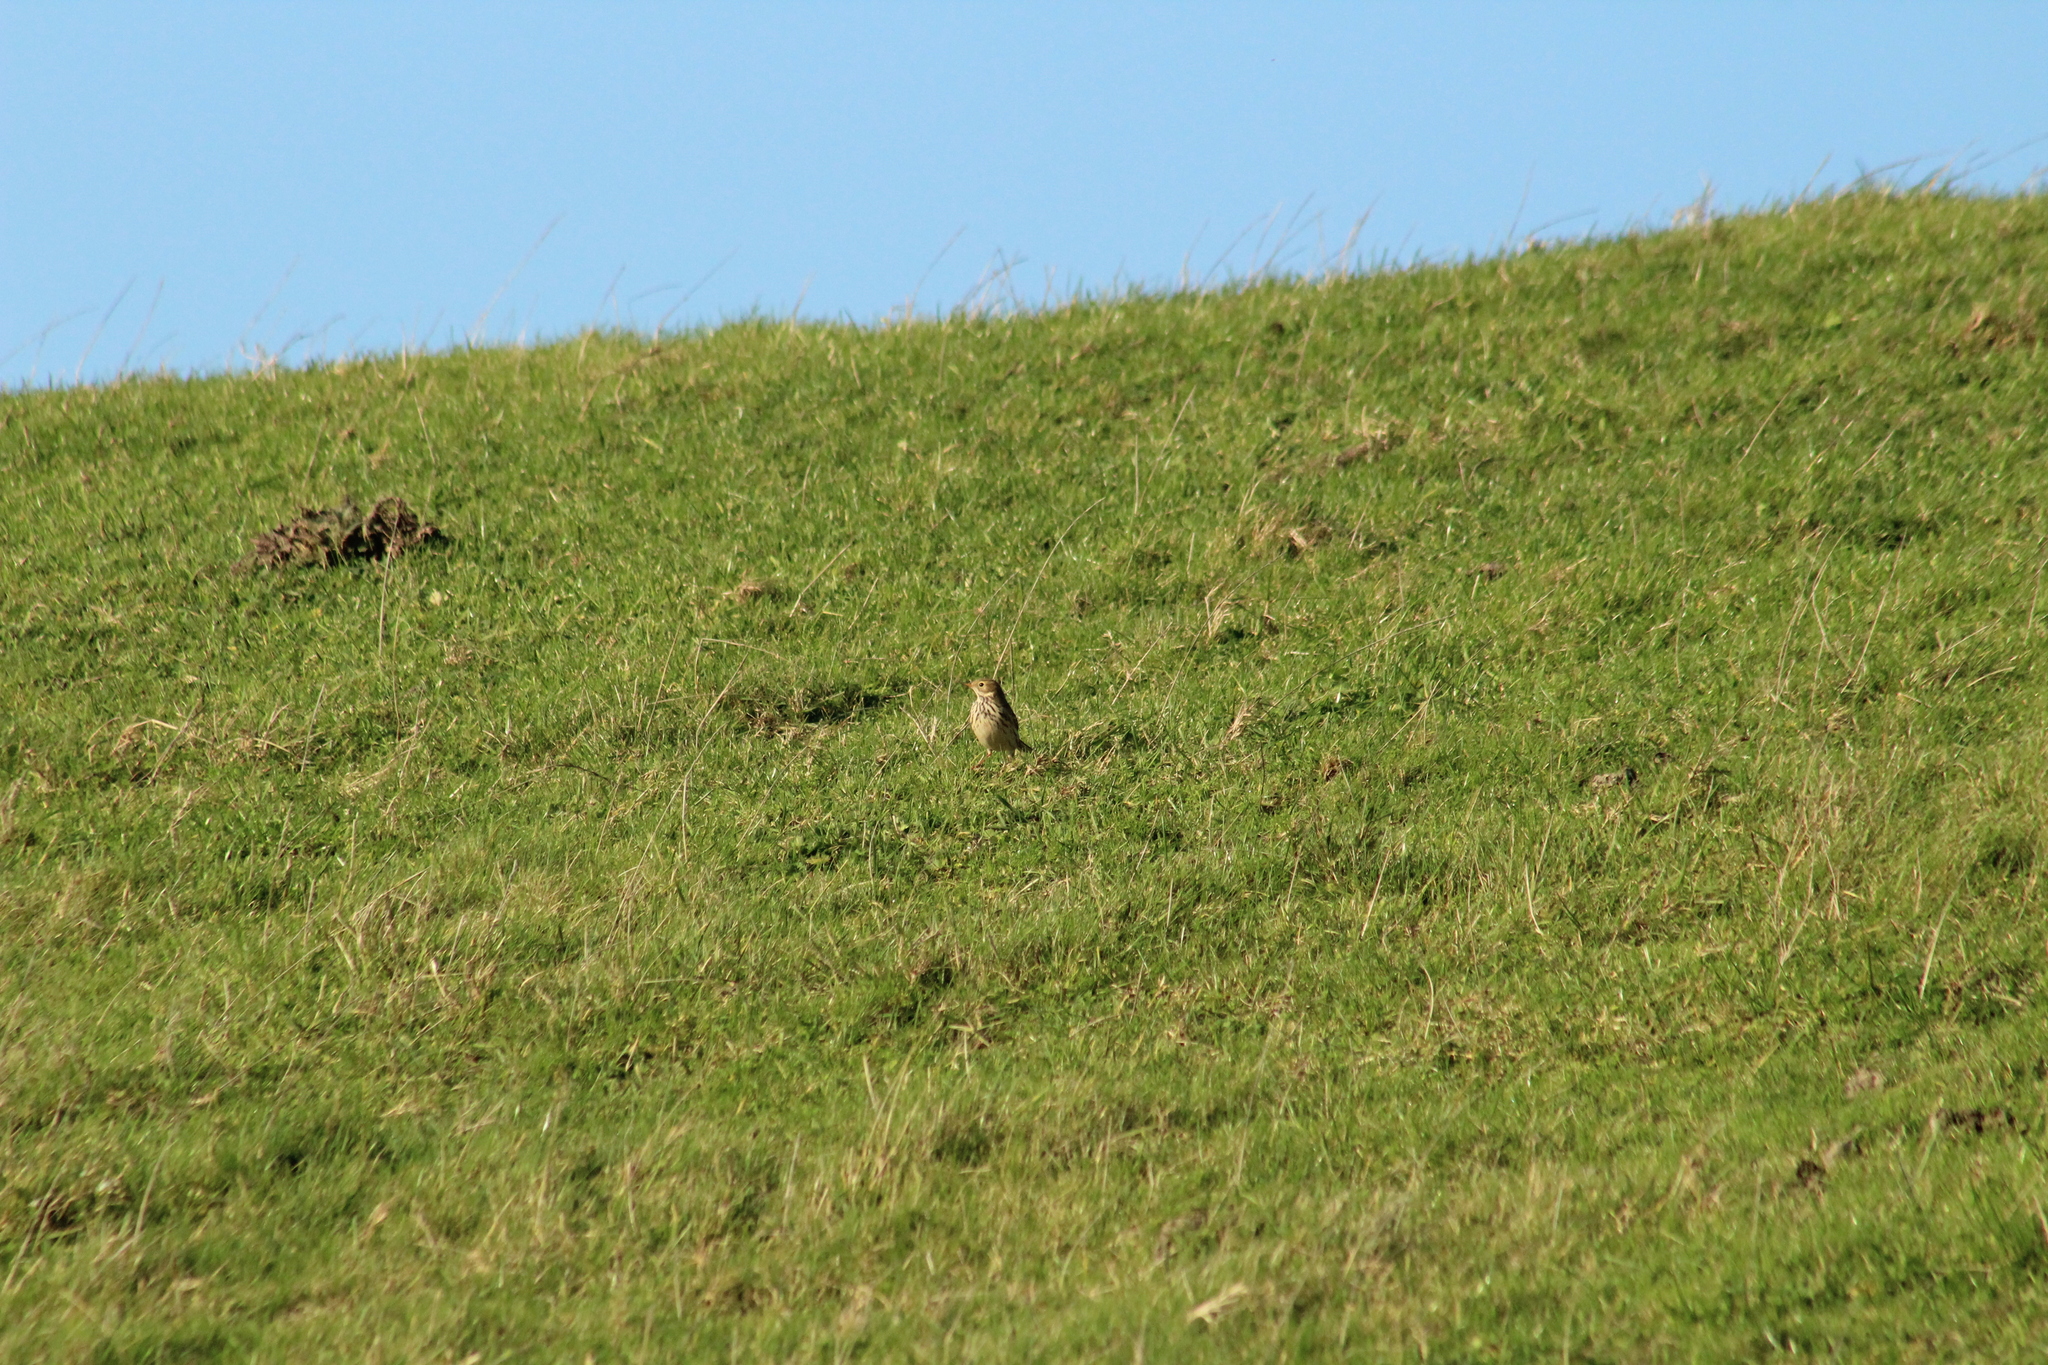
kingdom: Animalia
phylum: Chordata
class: Aves
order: Passeriformes
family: Motacillidae
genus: Anthus
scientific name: Anthus pratensis
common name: Meadow pipit
